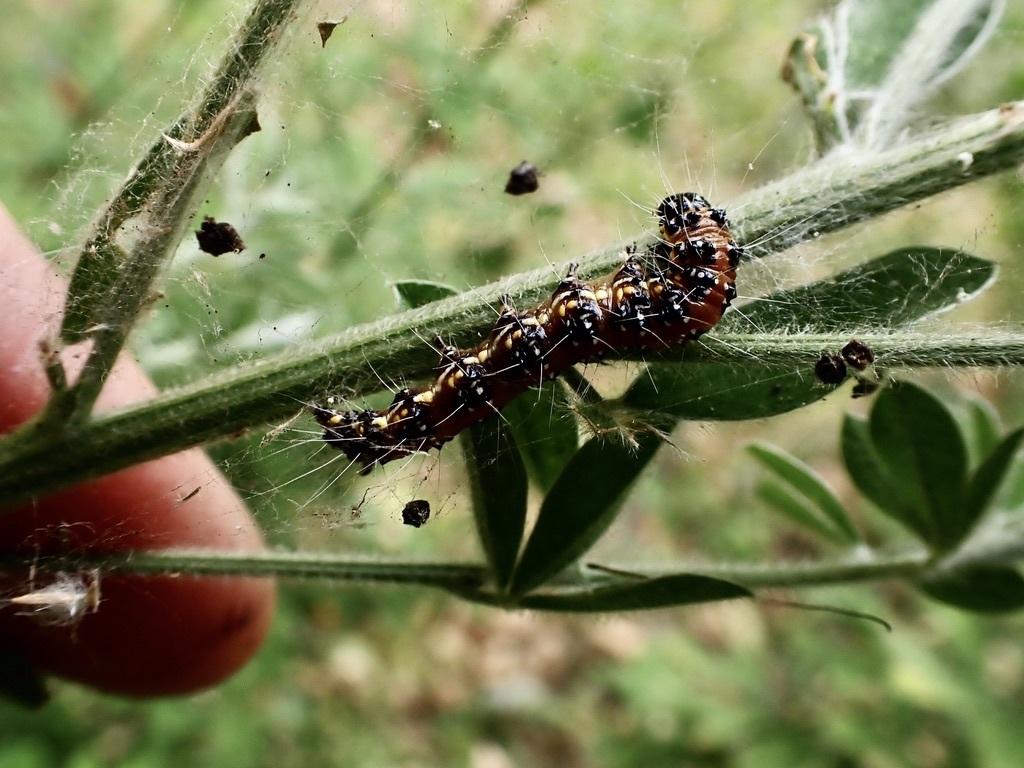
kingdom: Animalia
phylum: Arthropoda
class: Insecta
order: Lepidoptera
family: Crambidae
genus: Uresiphita
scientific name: Uresiphita reversalis
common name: Genista broom moth
